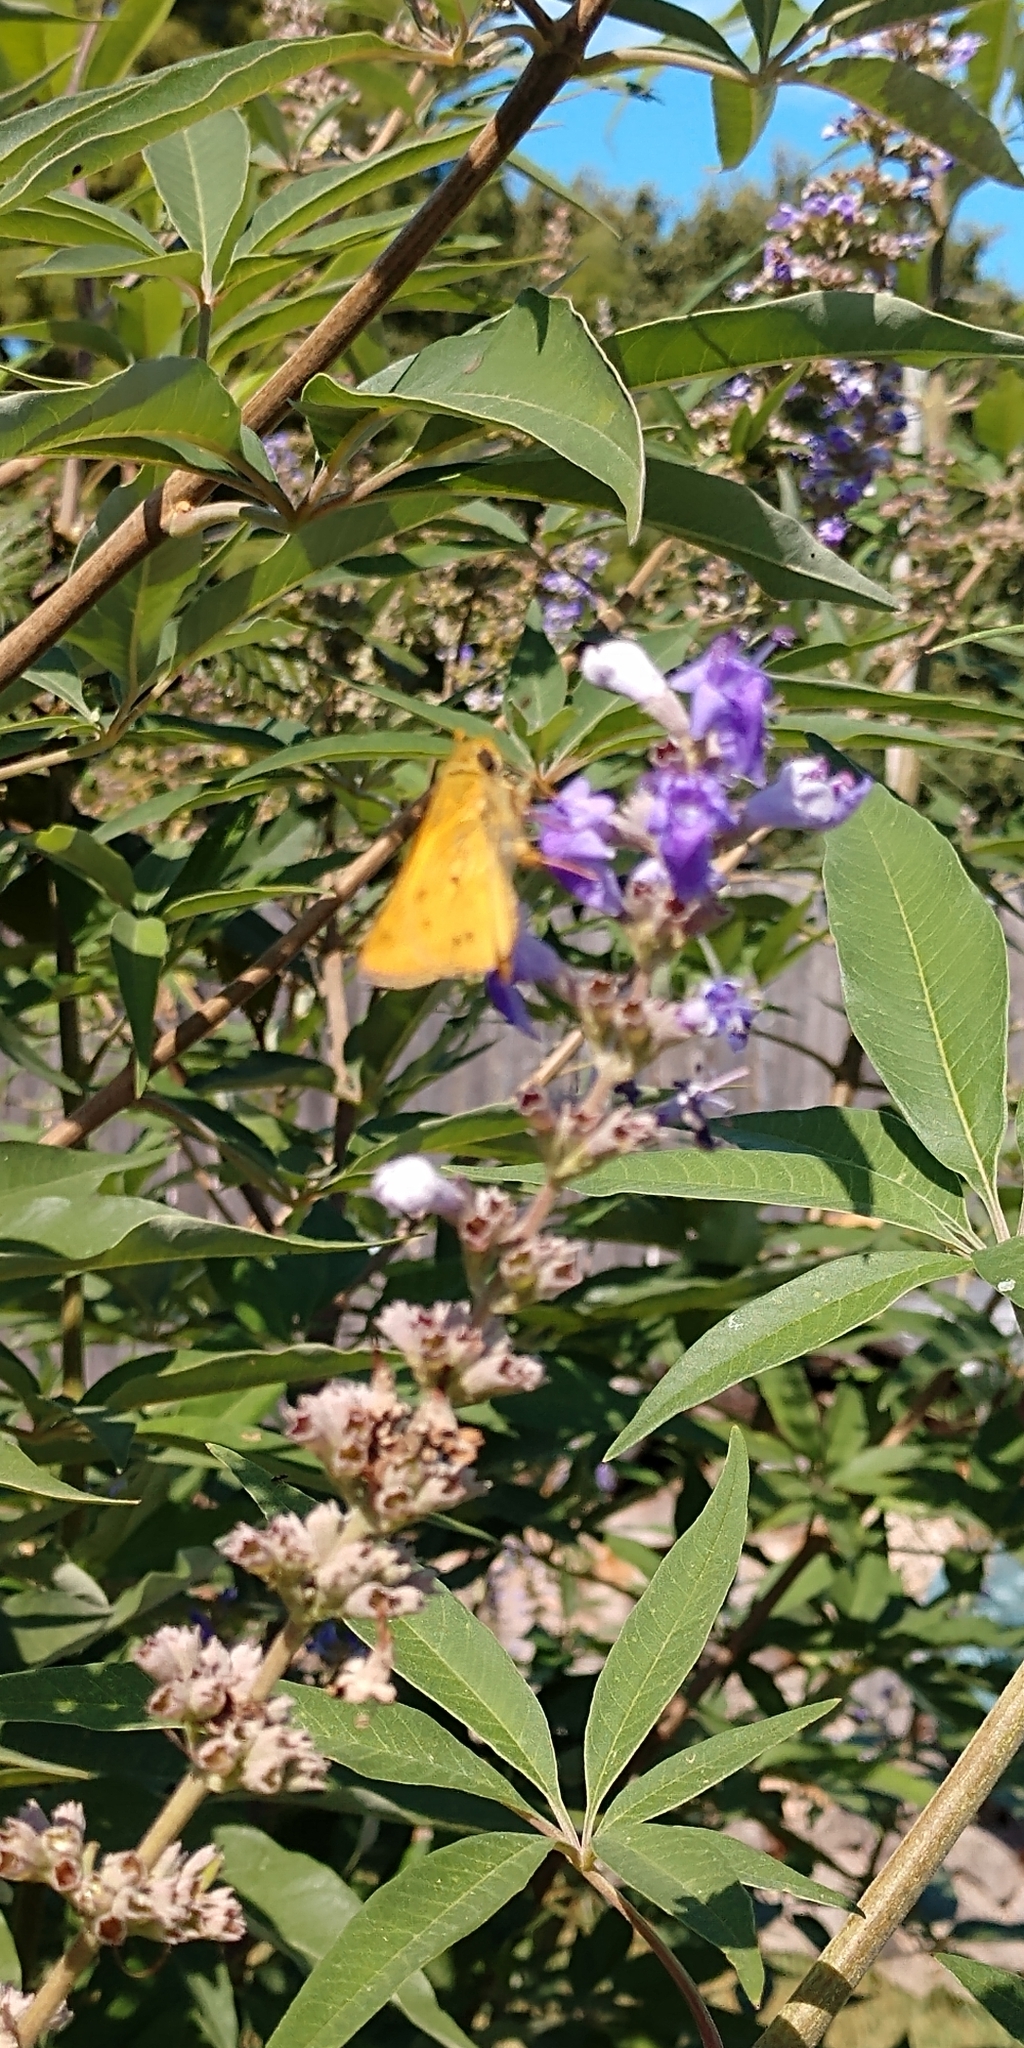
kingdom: Animalia
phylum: Arthropoda
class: Insecta
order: Lepidoptera
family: Hesperiidae
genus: Hylephila
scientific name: Hylephila phyleus
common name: Fiery skipper
